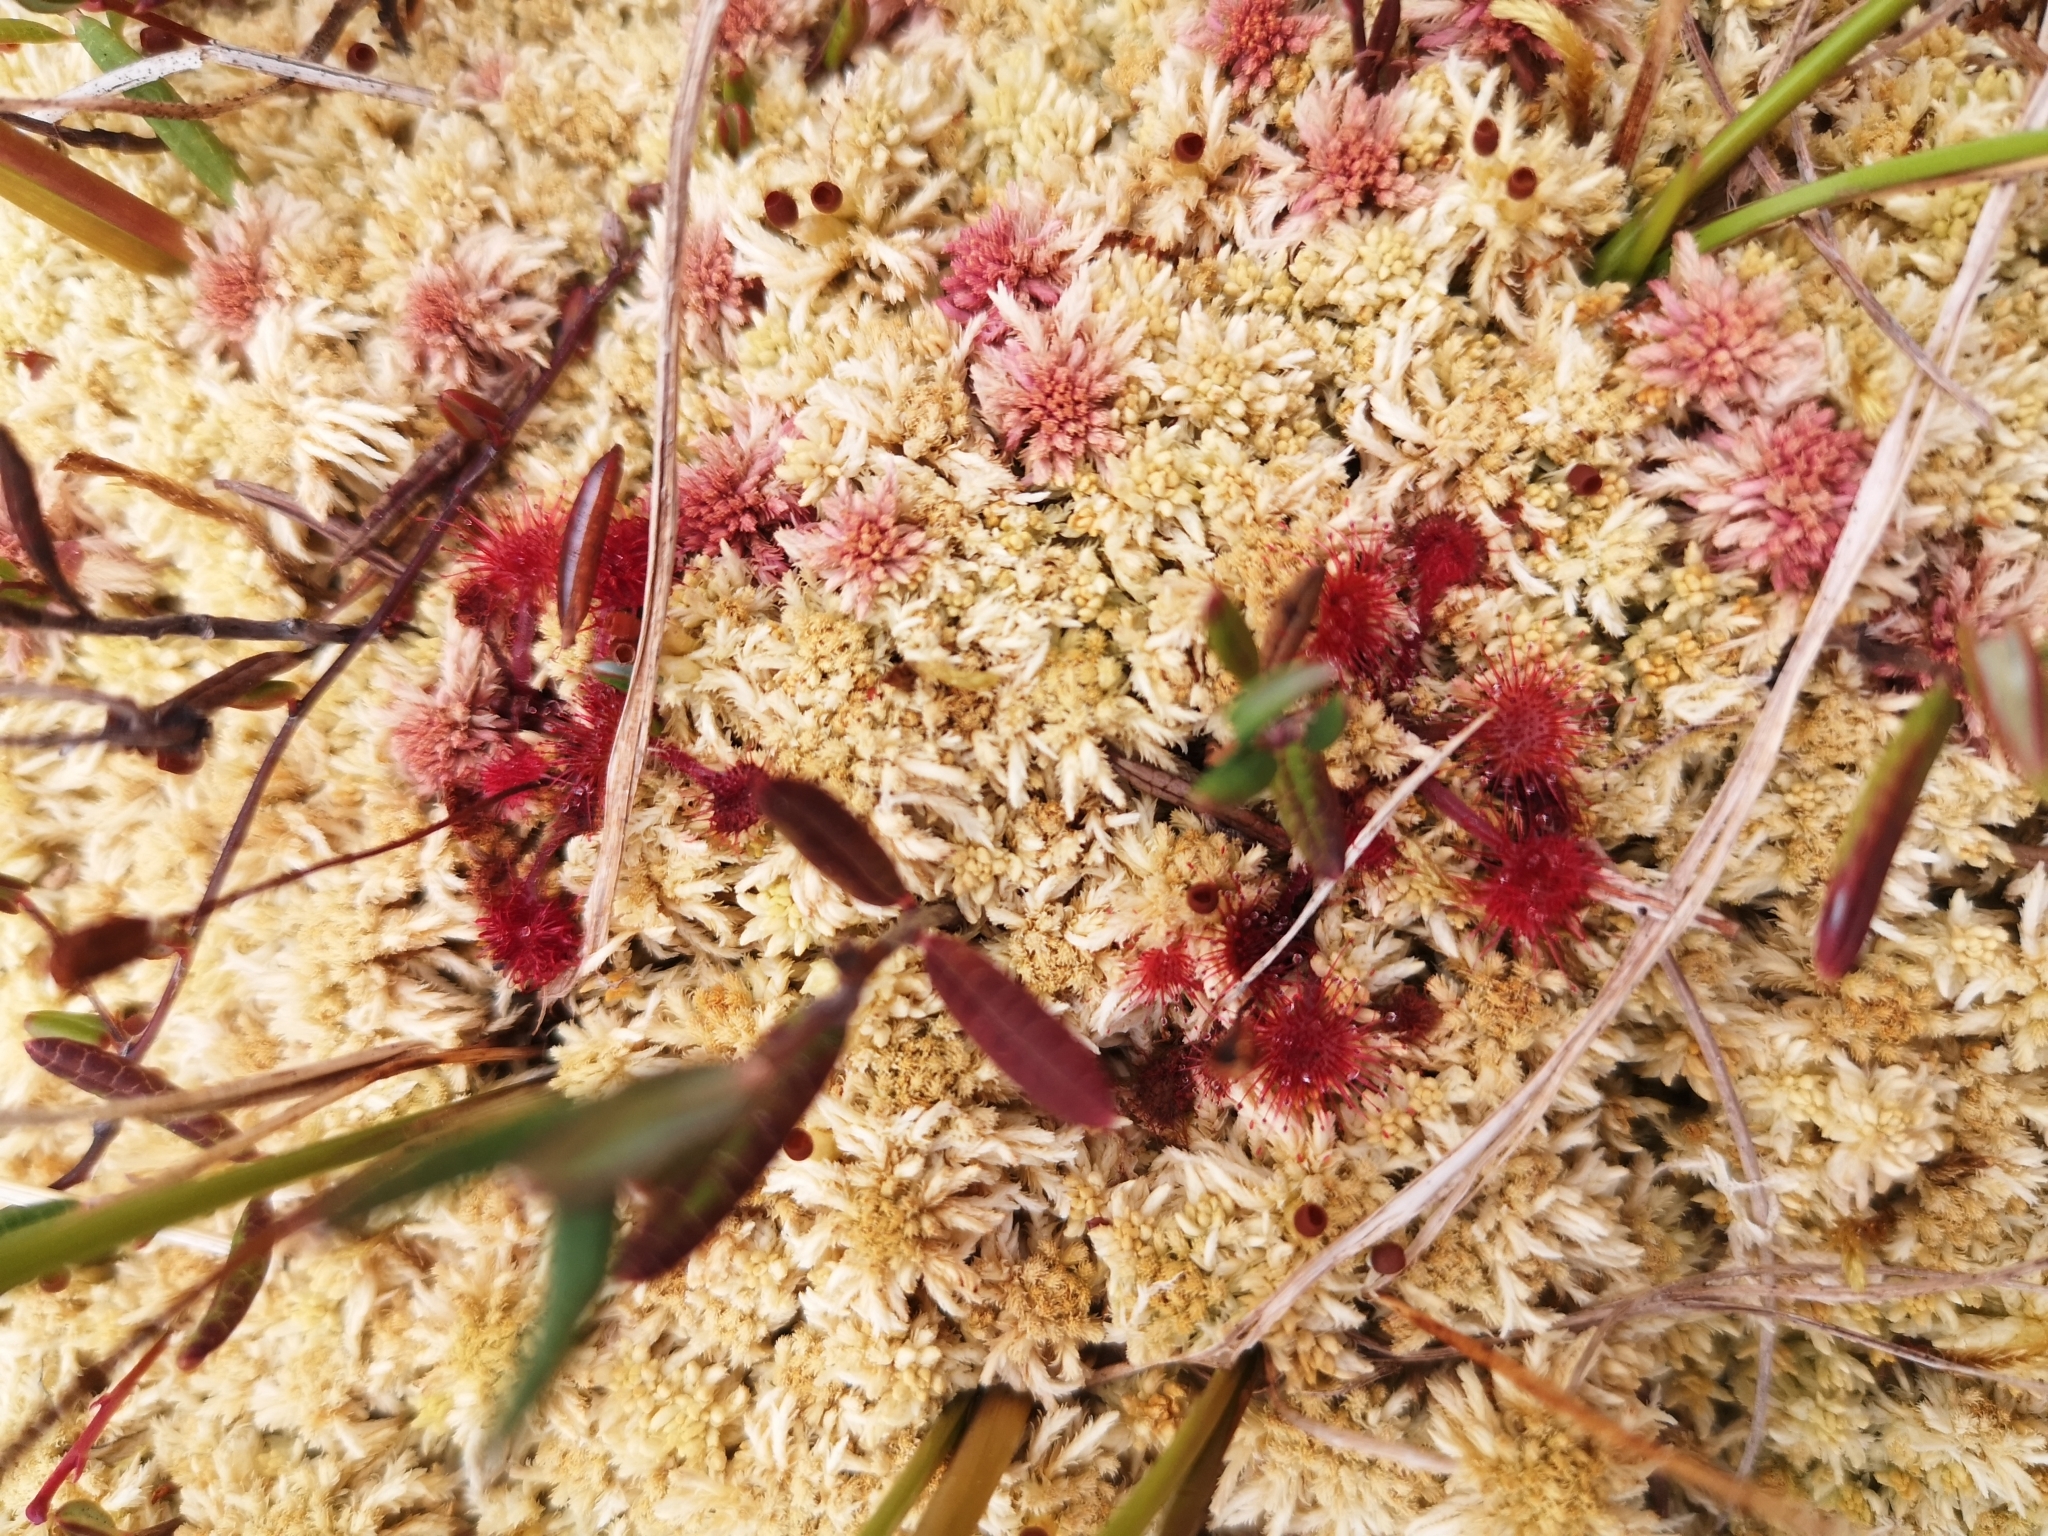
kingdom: Plantae
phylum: Tracheophyta
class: Magnoliopsida
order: Caryophyllales
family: Droseraceae
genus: Drosera
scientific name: Drosera rotundifolia
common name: Round-leaved sundew
